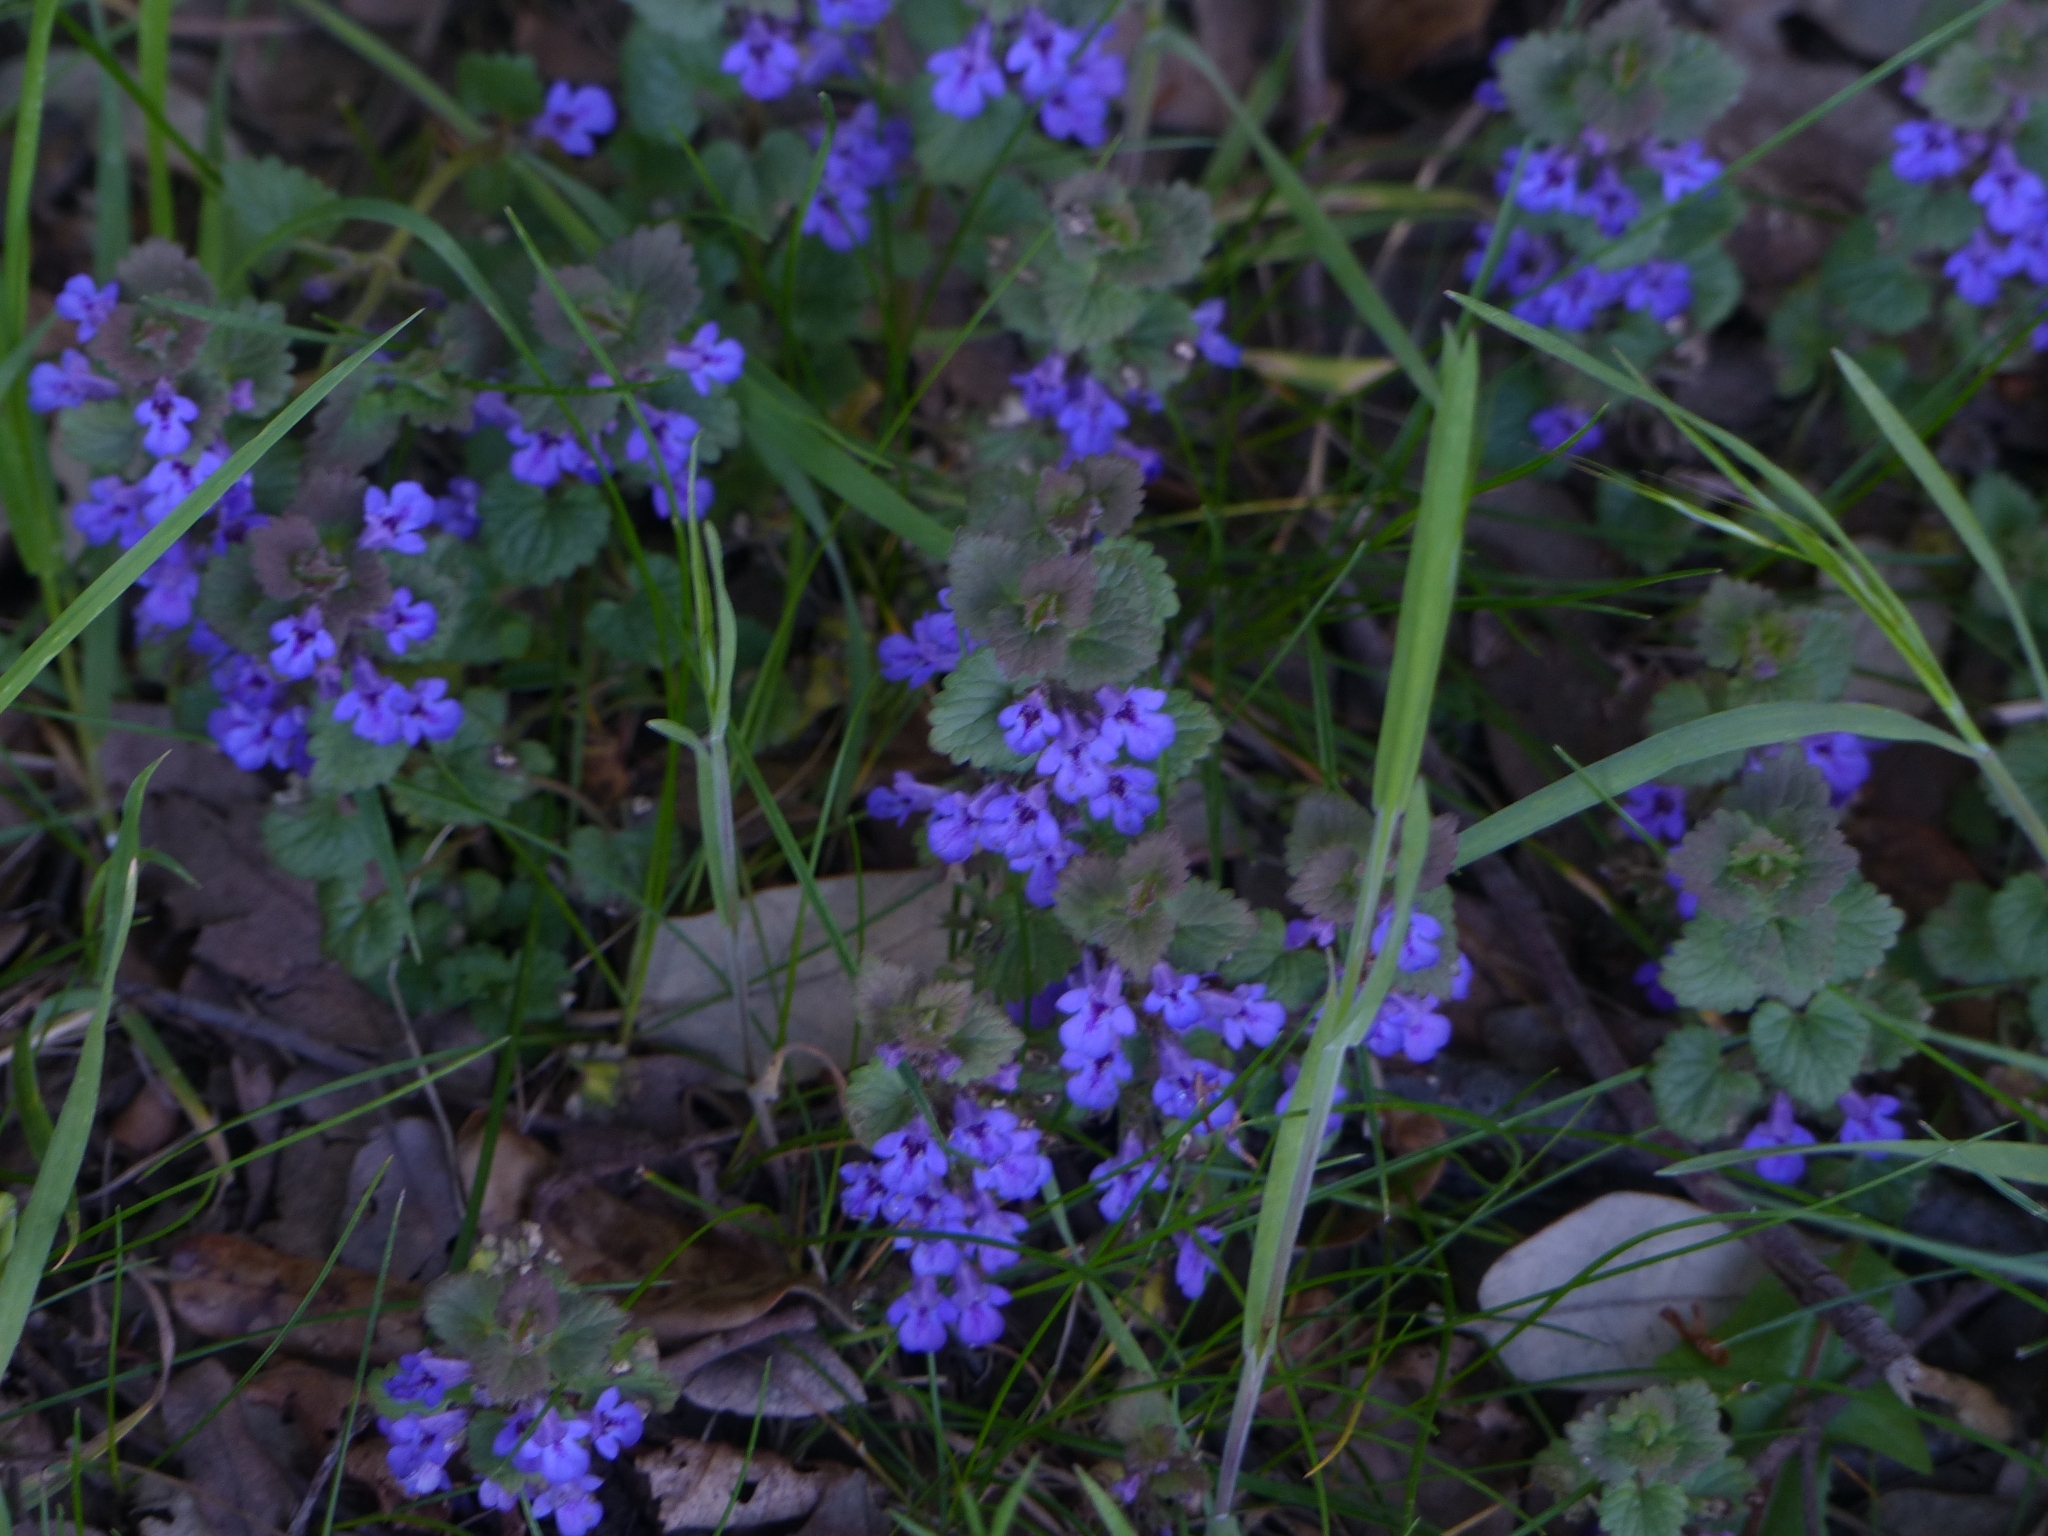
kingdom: Plantae
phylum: Tracheophyta
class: Magnoliopsida
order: Lamiales
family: Lamiaceae
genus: Glechoma
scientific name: Glechoma hederacea
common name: Ground ivy
